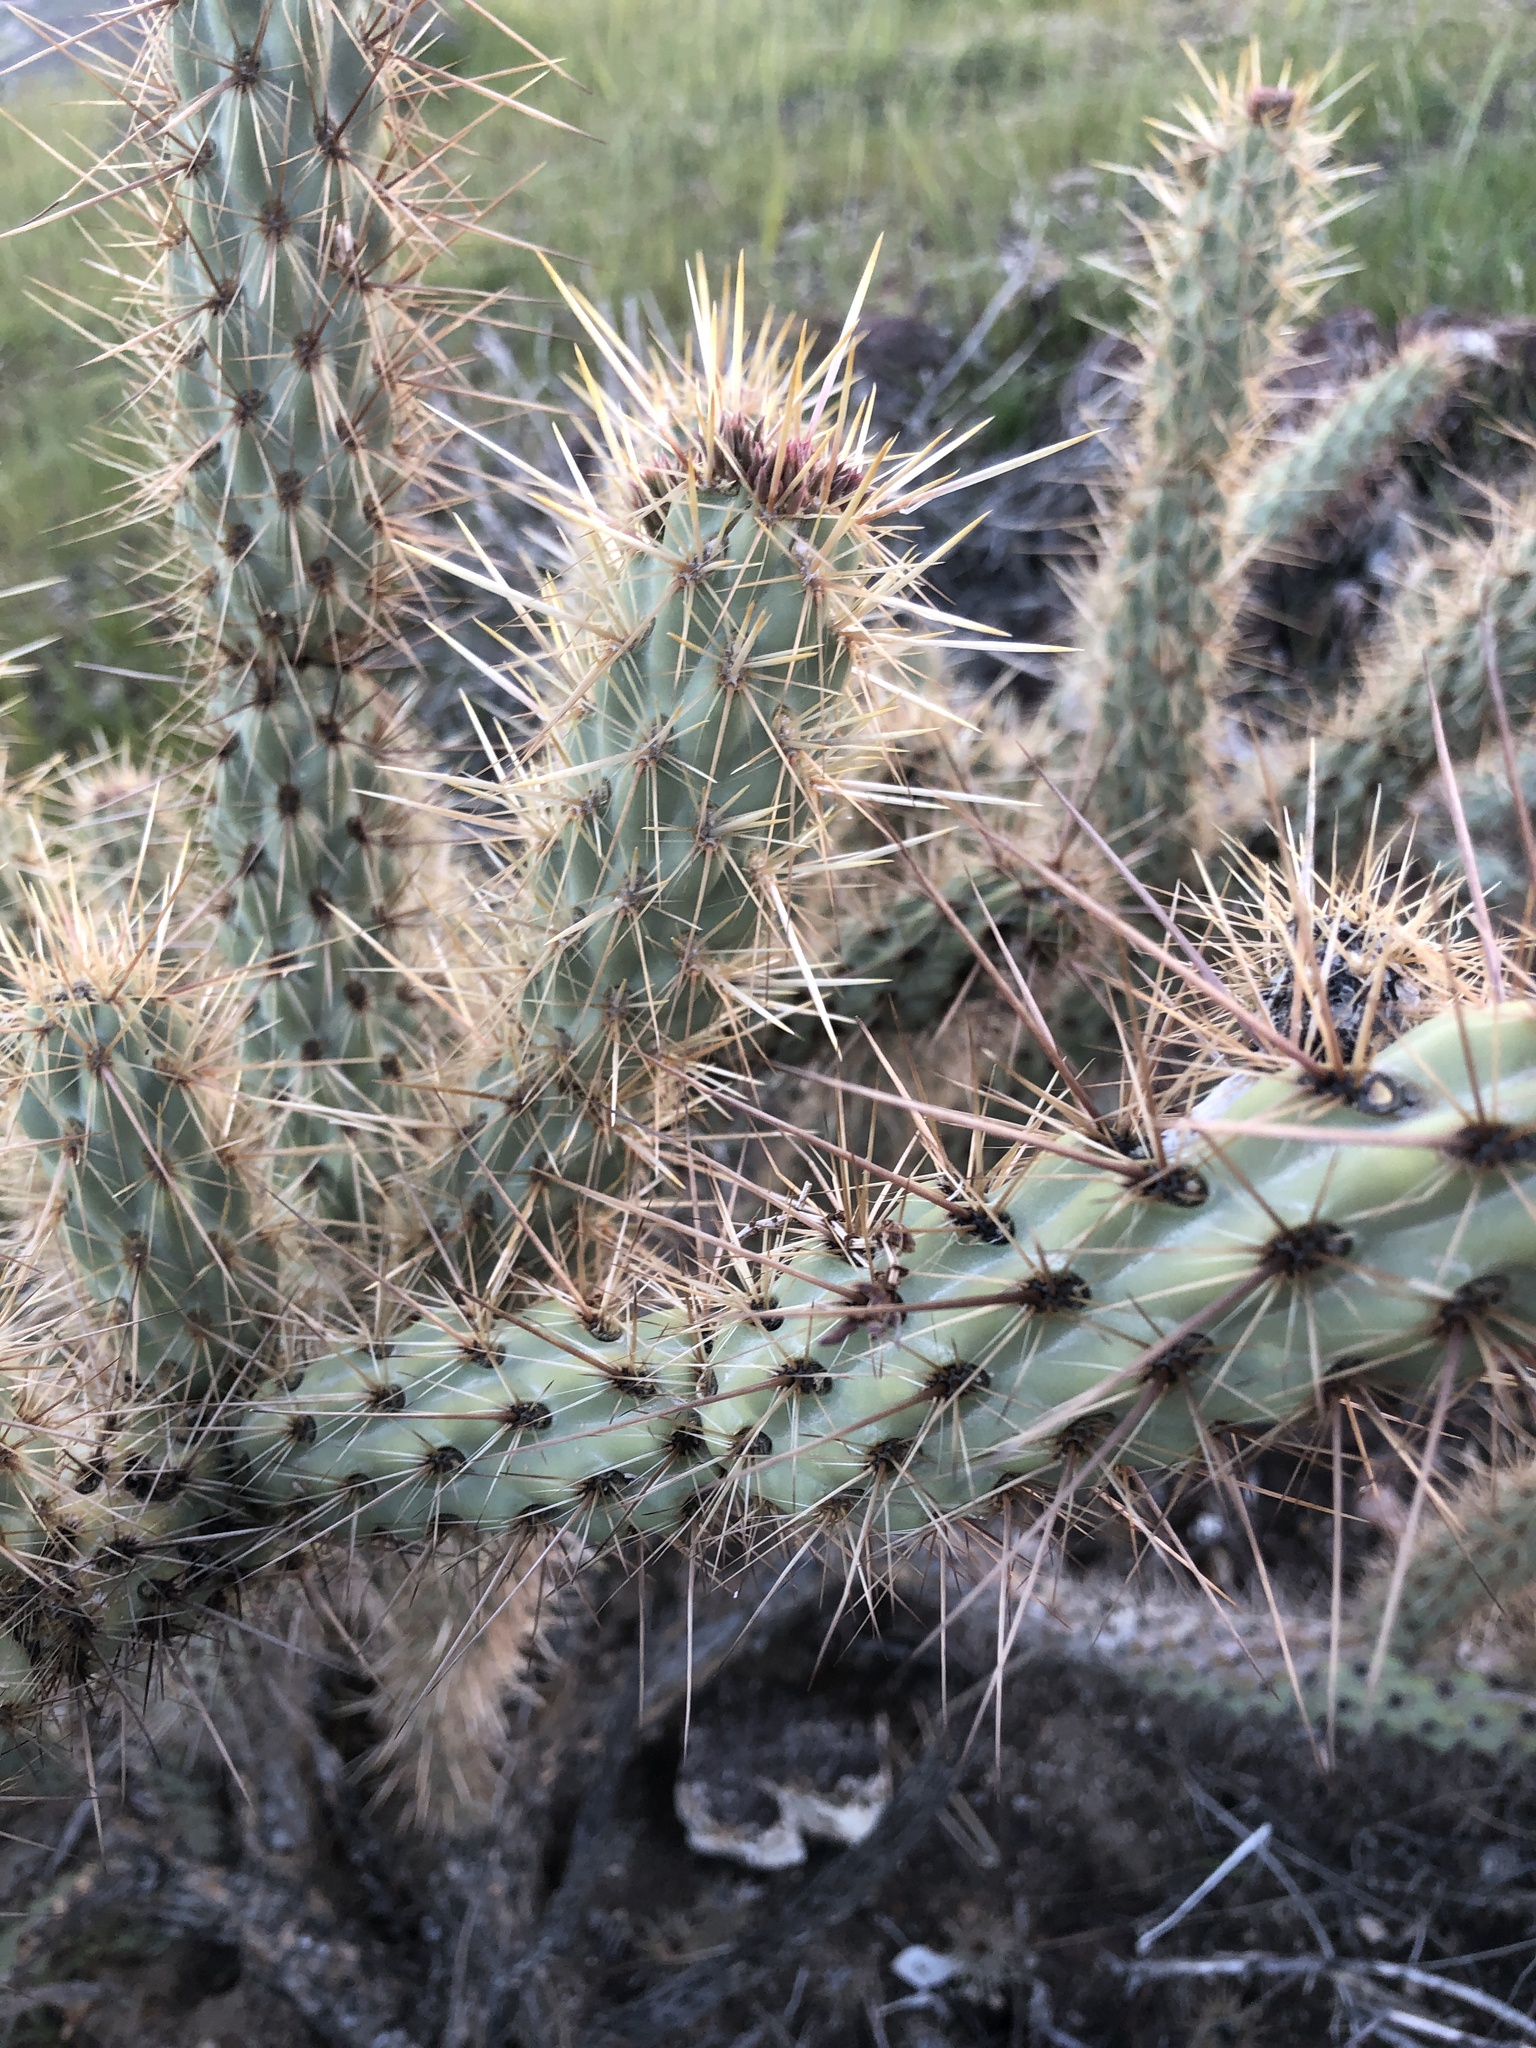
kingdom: Plantae
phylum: Tracheophyta
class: Magnoliopsida
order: Caryophyllales
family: Cactaceae
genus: Cylindropuntia
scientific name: Cylindropuntia ganderi
